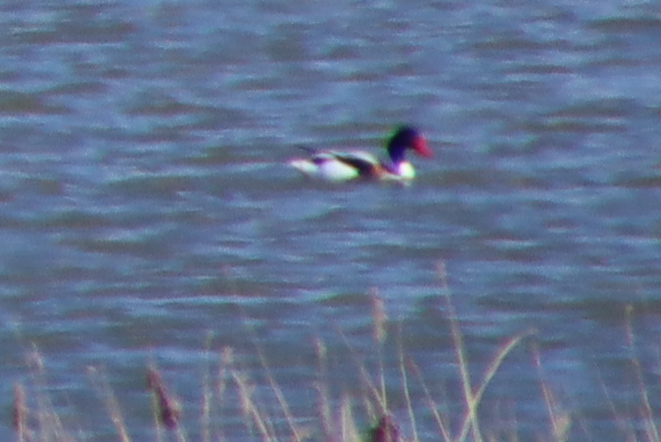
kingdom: Animalia
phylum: Chordata
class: Aves
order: Anseriformes
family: Anatidae
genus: Tadorna
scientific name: Tadorna tadorna
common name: Common shelduck
